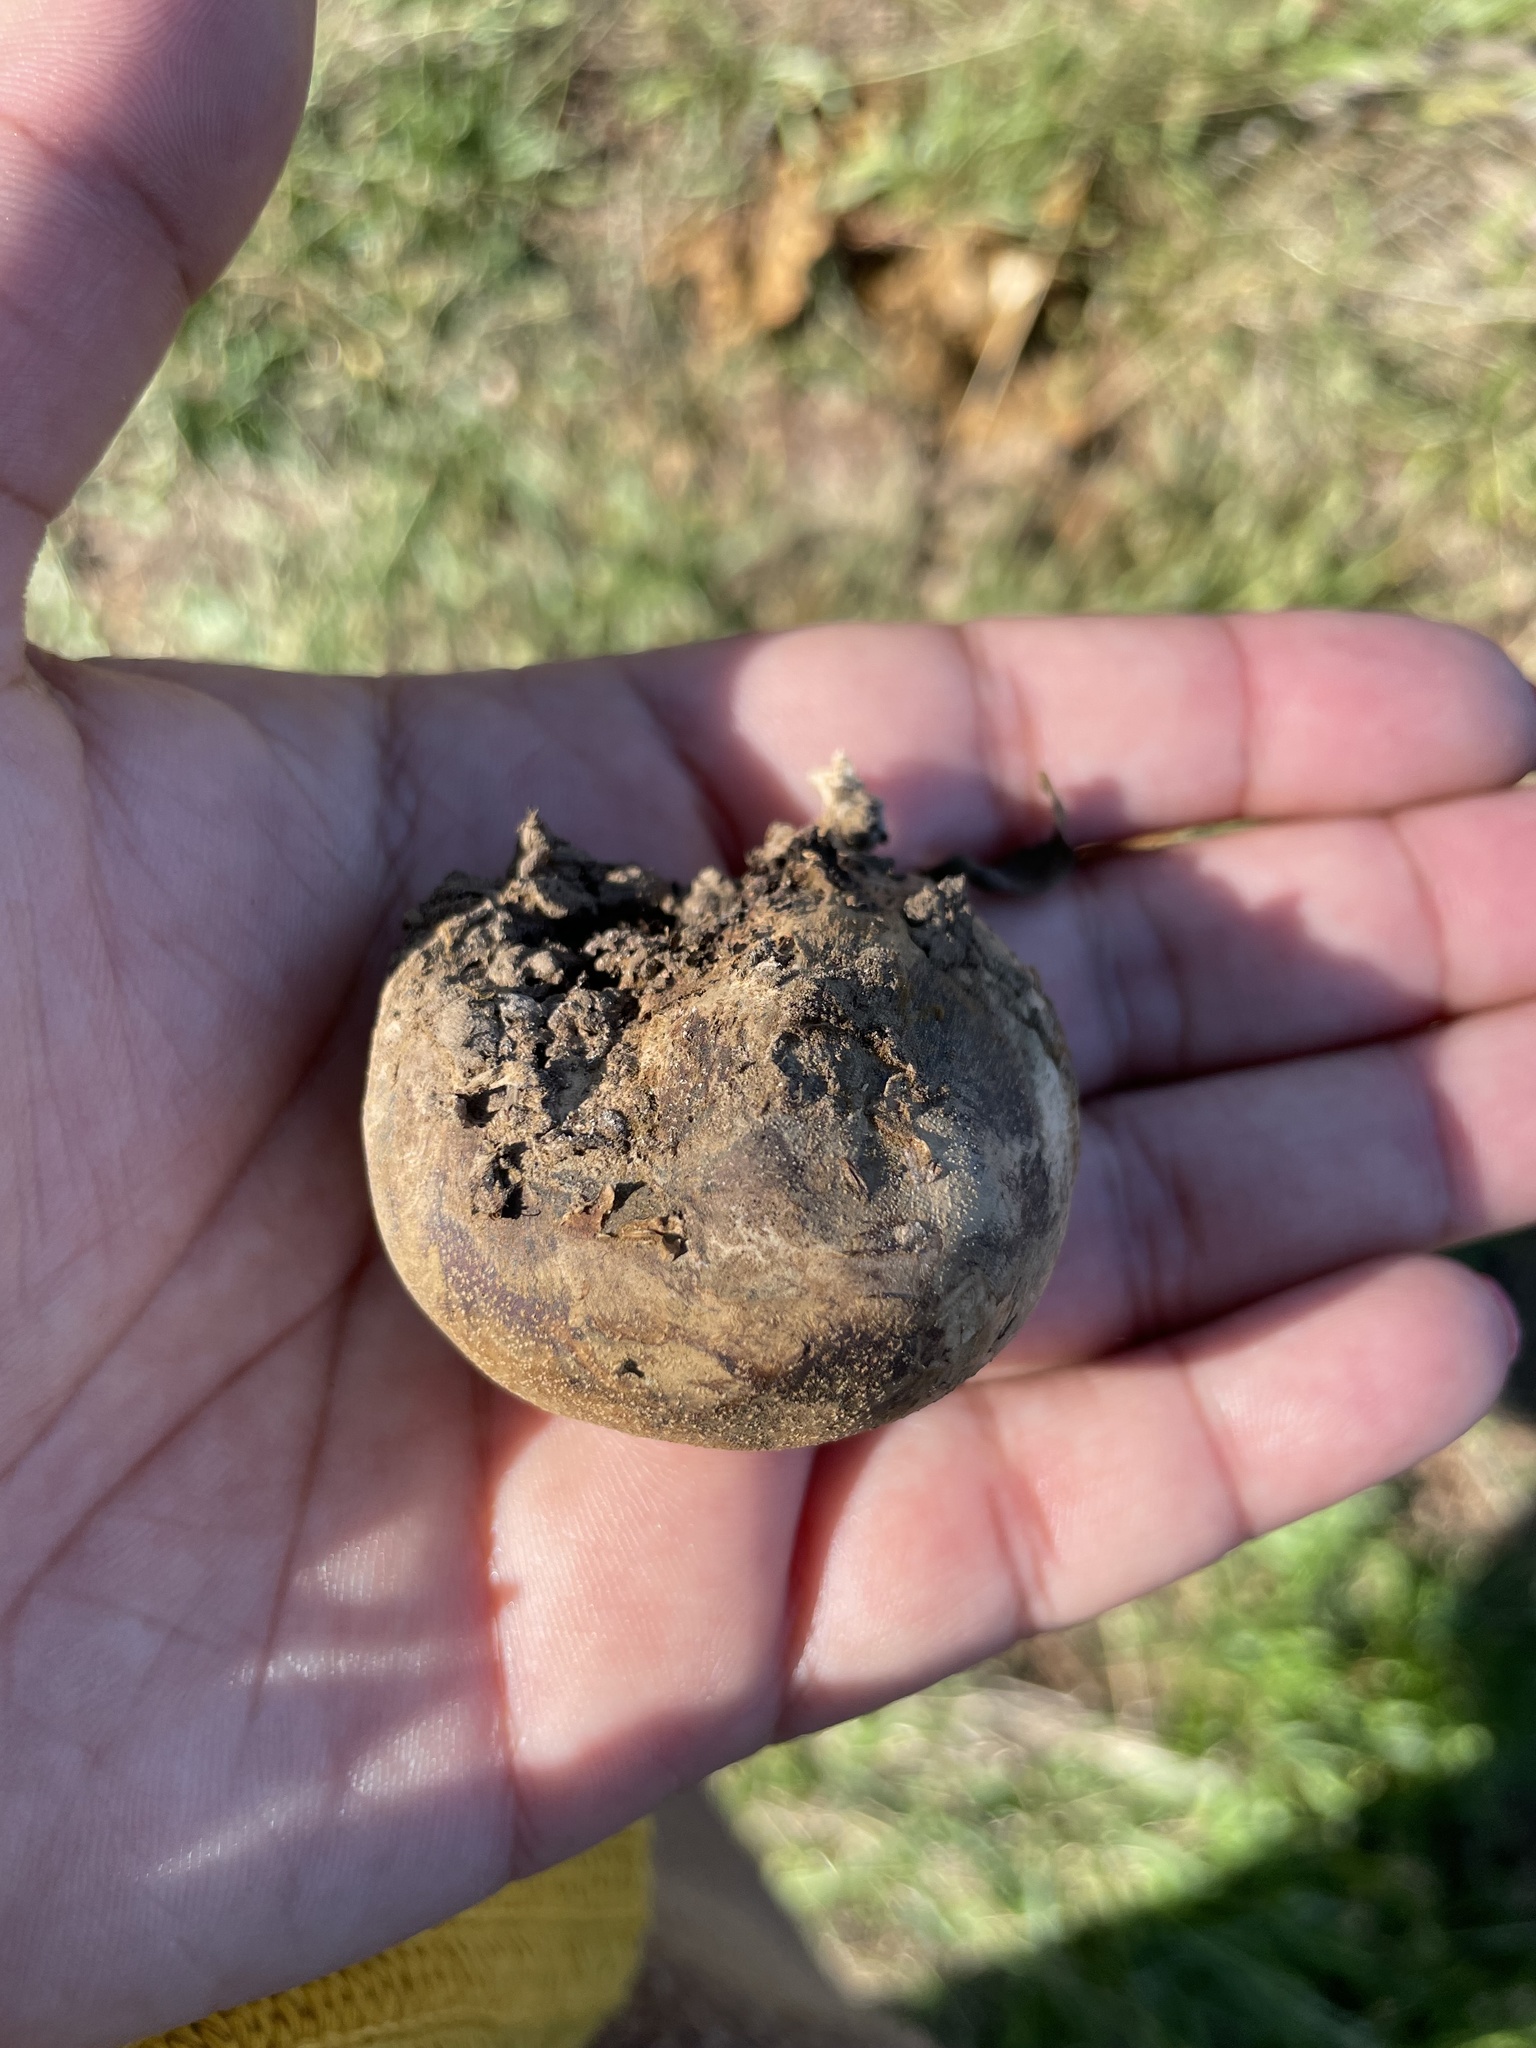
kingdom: Fungi
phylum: Basidiomycota
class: Agaricomycetes
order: Agaricales
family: Lycoperdaceae
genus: Langermannia
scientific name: Langermannia pachyderma
